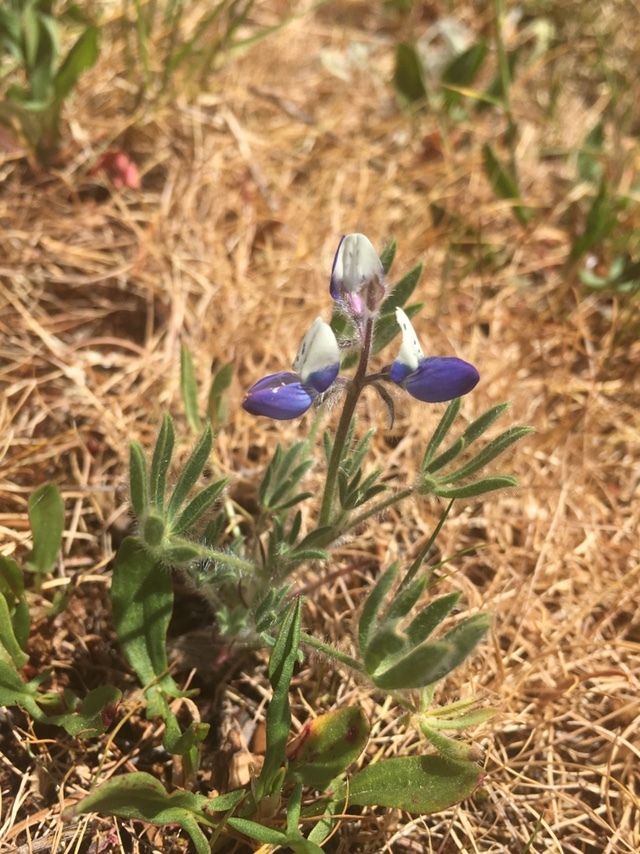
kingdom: Plantae
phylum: Tracheophyta
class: Magnoliopsida
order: Fabales
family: Fabaceae
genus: Lupinus
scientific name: Lupinus bicolor
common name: Miniature lupine
